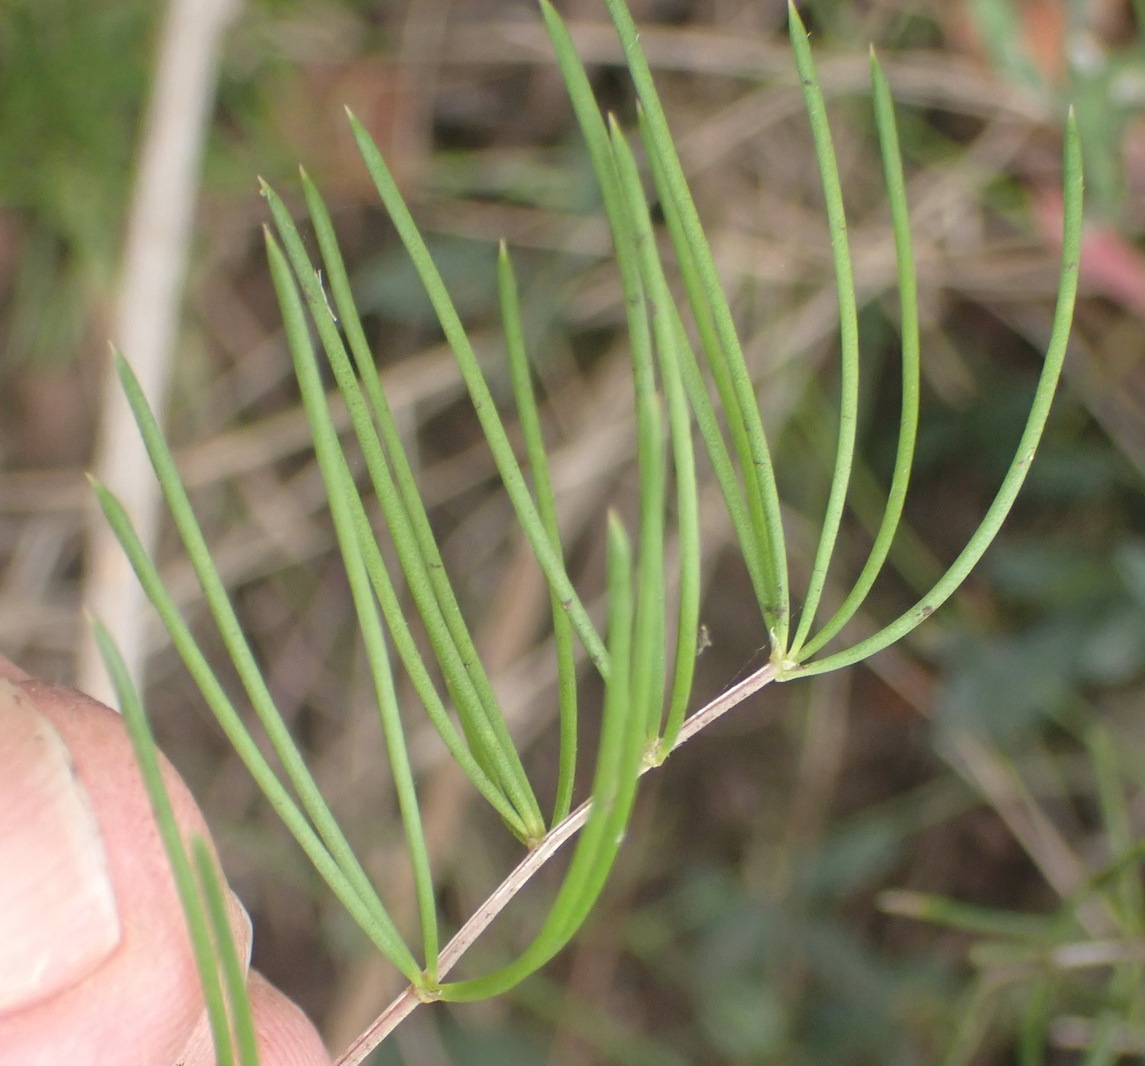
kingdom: Plantae
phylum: Tracheophyta
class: Liliopsida
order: Asparagales
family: Asparagaceae
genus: Asparagus
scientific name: Asparagus macowanii
